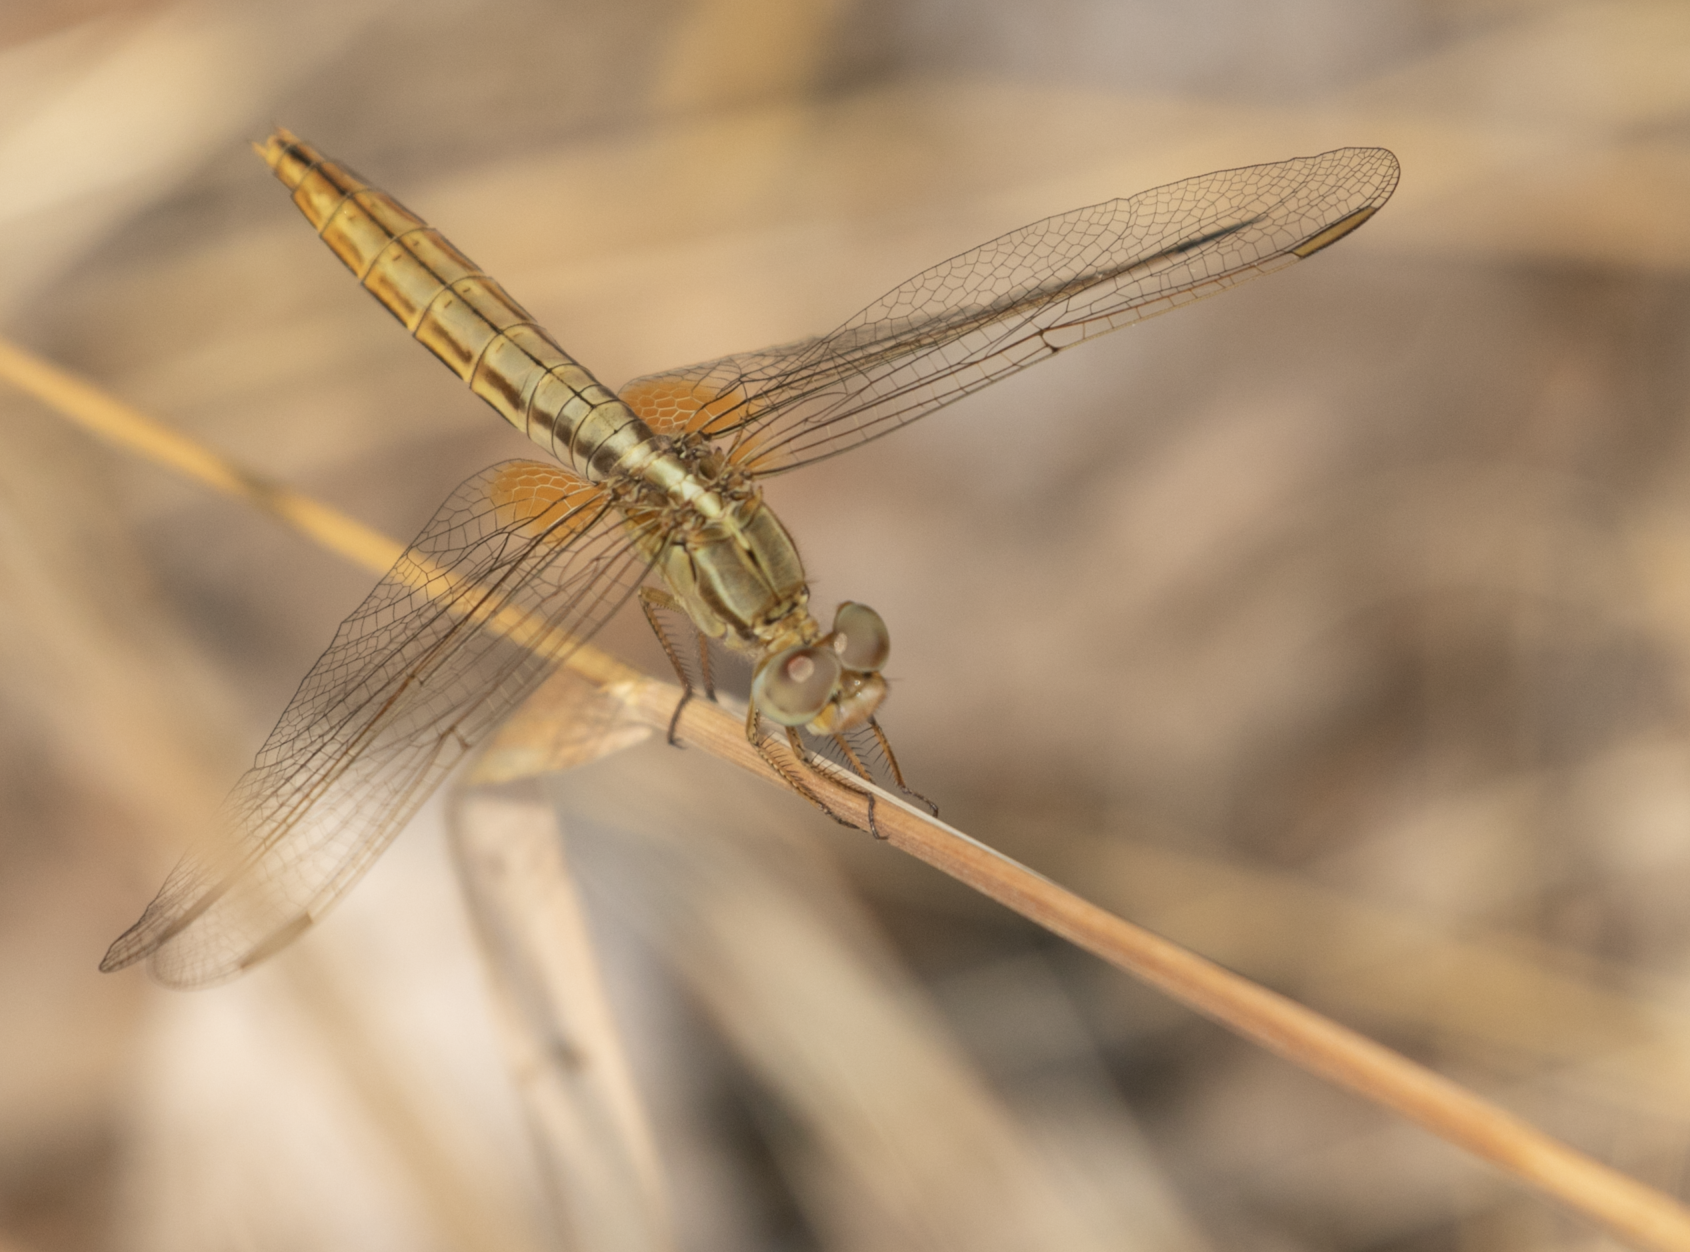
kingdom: Animalia
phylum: Arthropoda
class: Insecta
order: Odonata
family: Libellulidae
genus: Crocothemis
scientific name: Crocothemis erythraea
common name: Scarlet dragonfly
